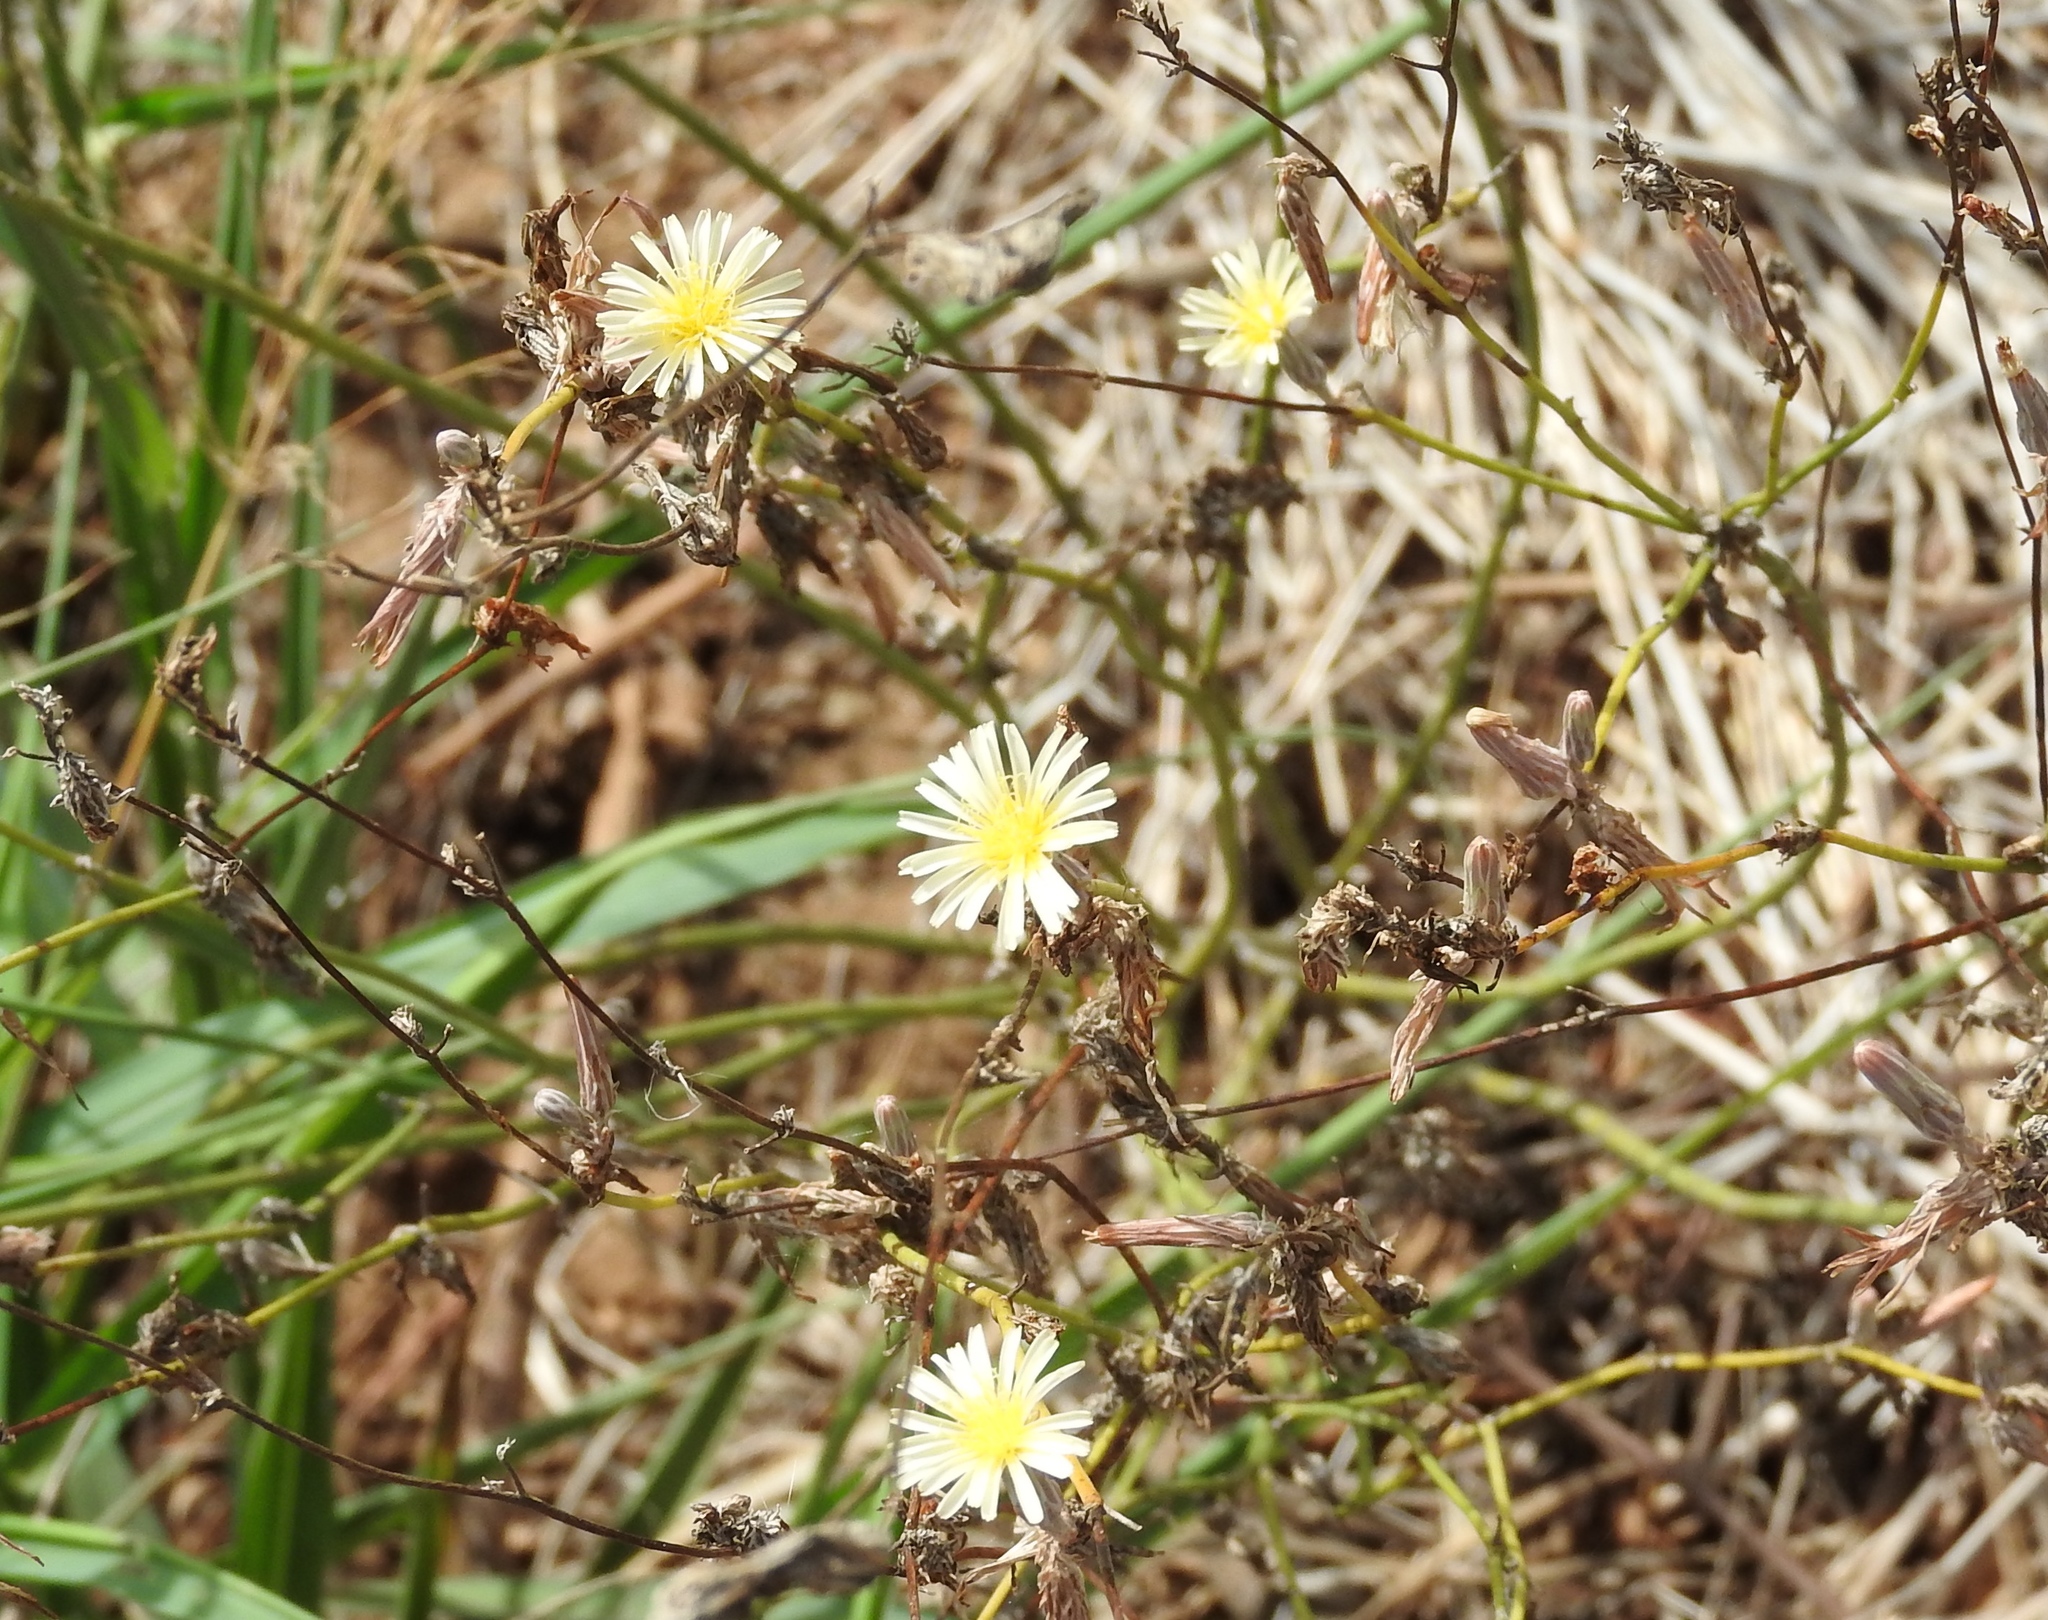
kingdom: Plantae
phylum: Tracheophyta
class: Magnoliopsida
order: Asterales
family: Asteraceae
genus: Launaea
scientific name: Launaea intybacea
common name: Achicoria azul
